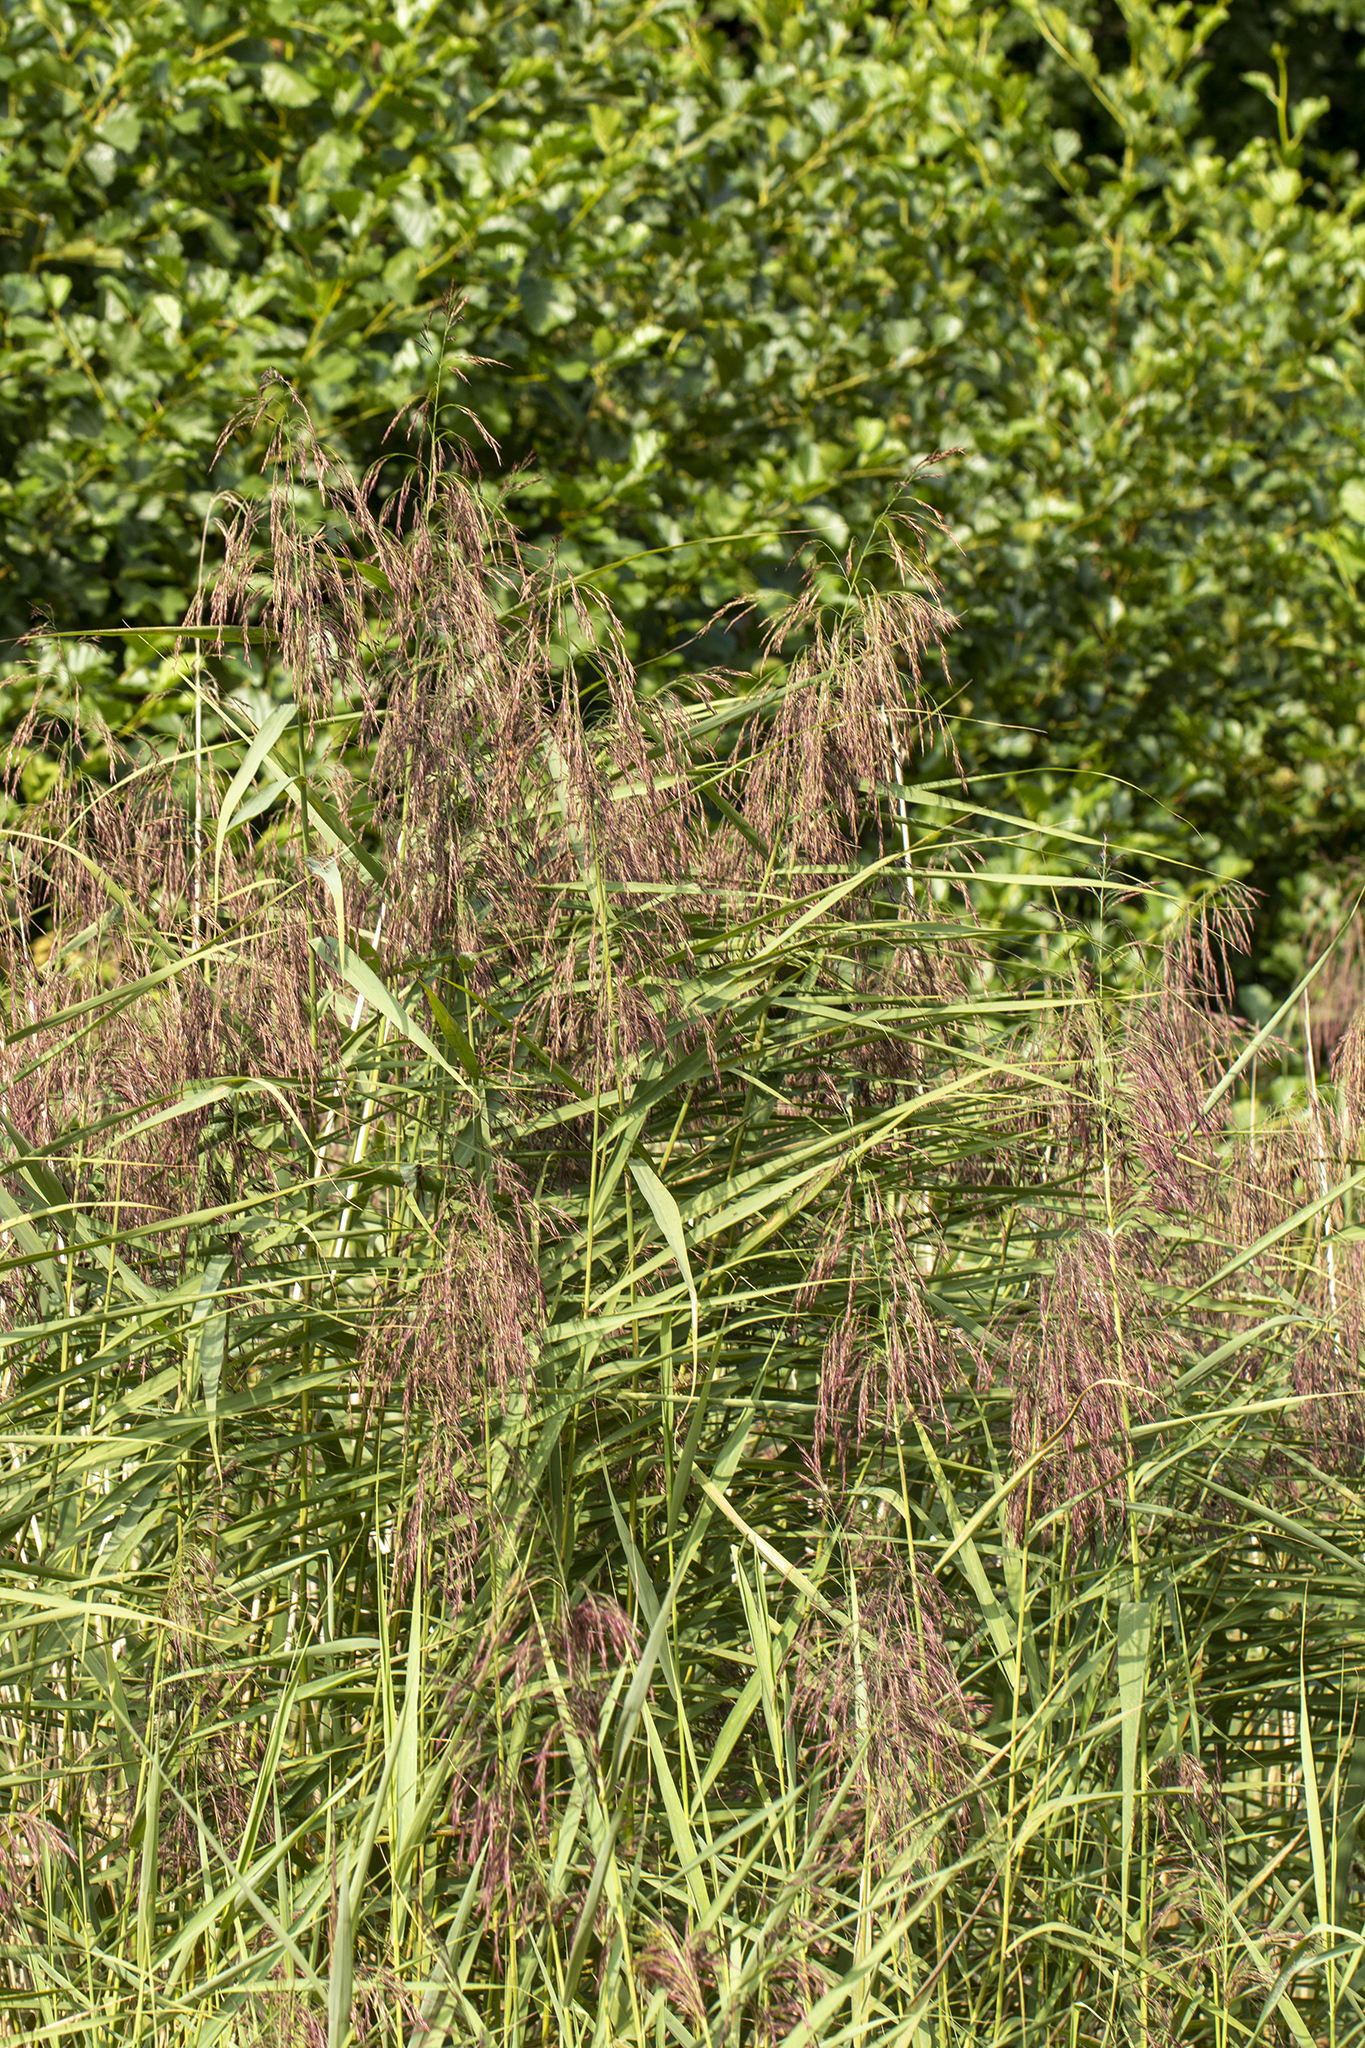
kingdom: Plantae
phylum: Tracheophyta
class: Liliopsida
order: Poales
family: Poaceae
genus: Phragmites
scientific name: Phragmites australis
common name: Common reed
